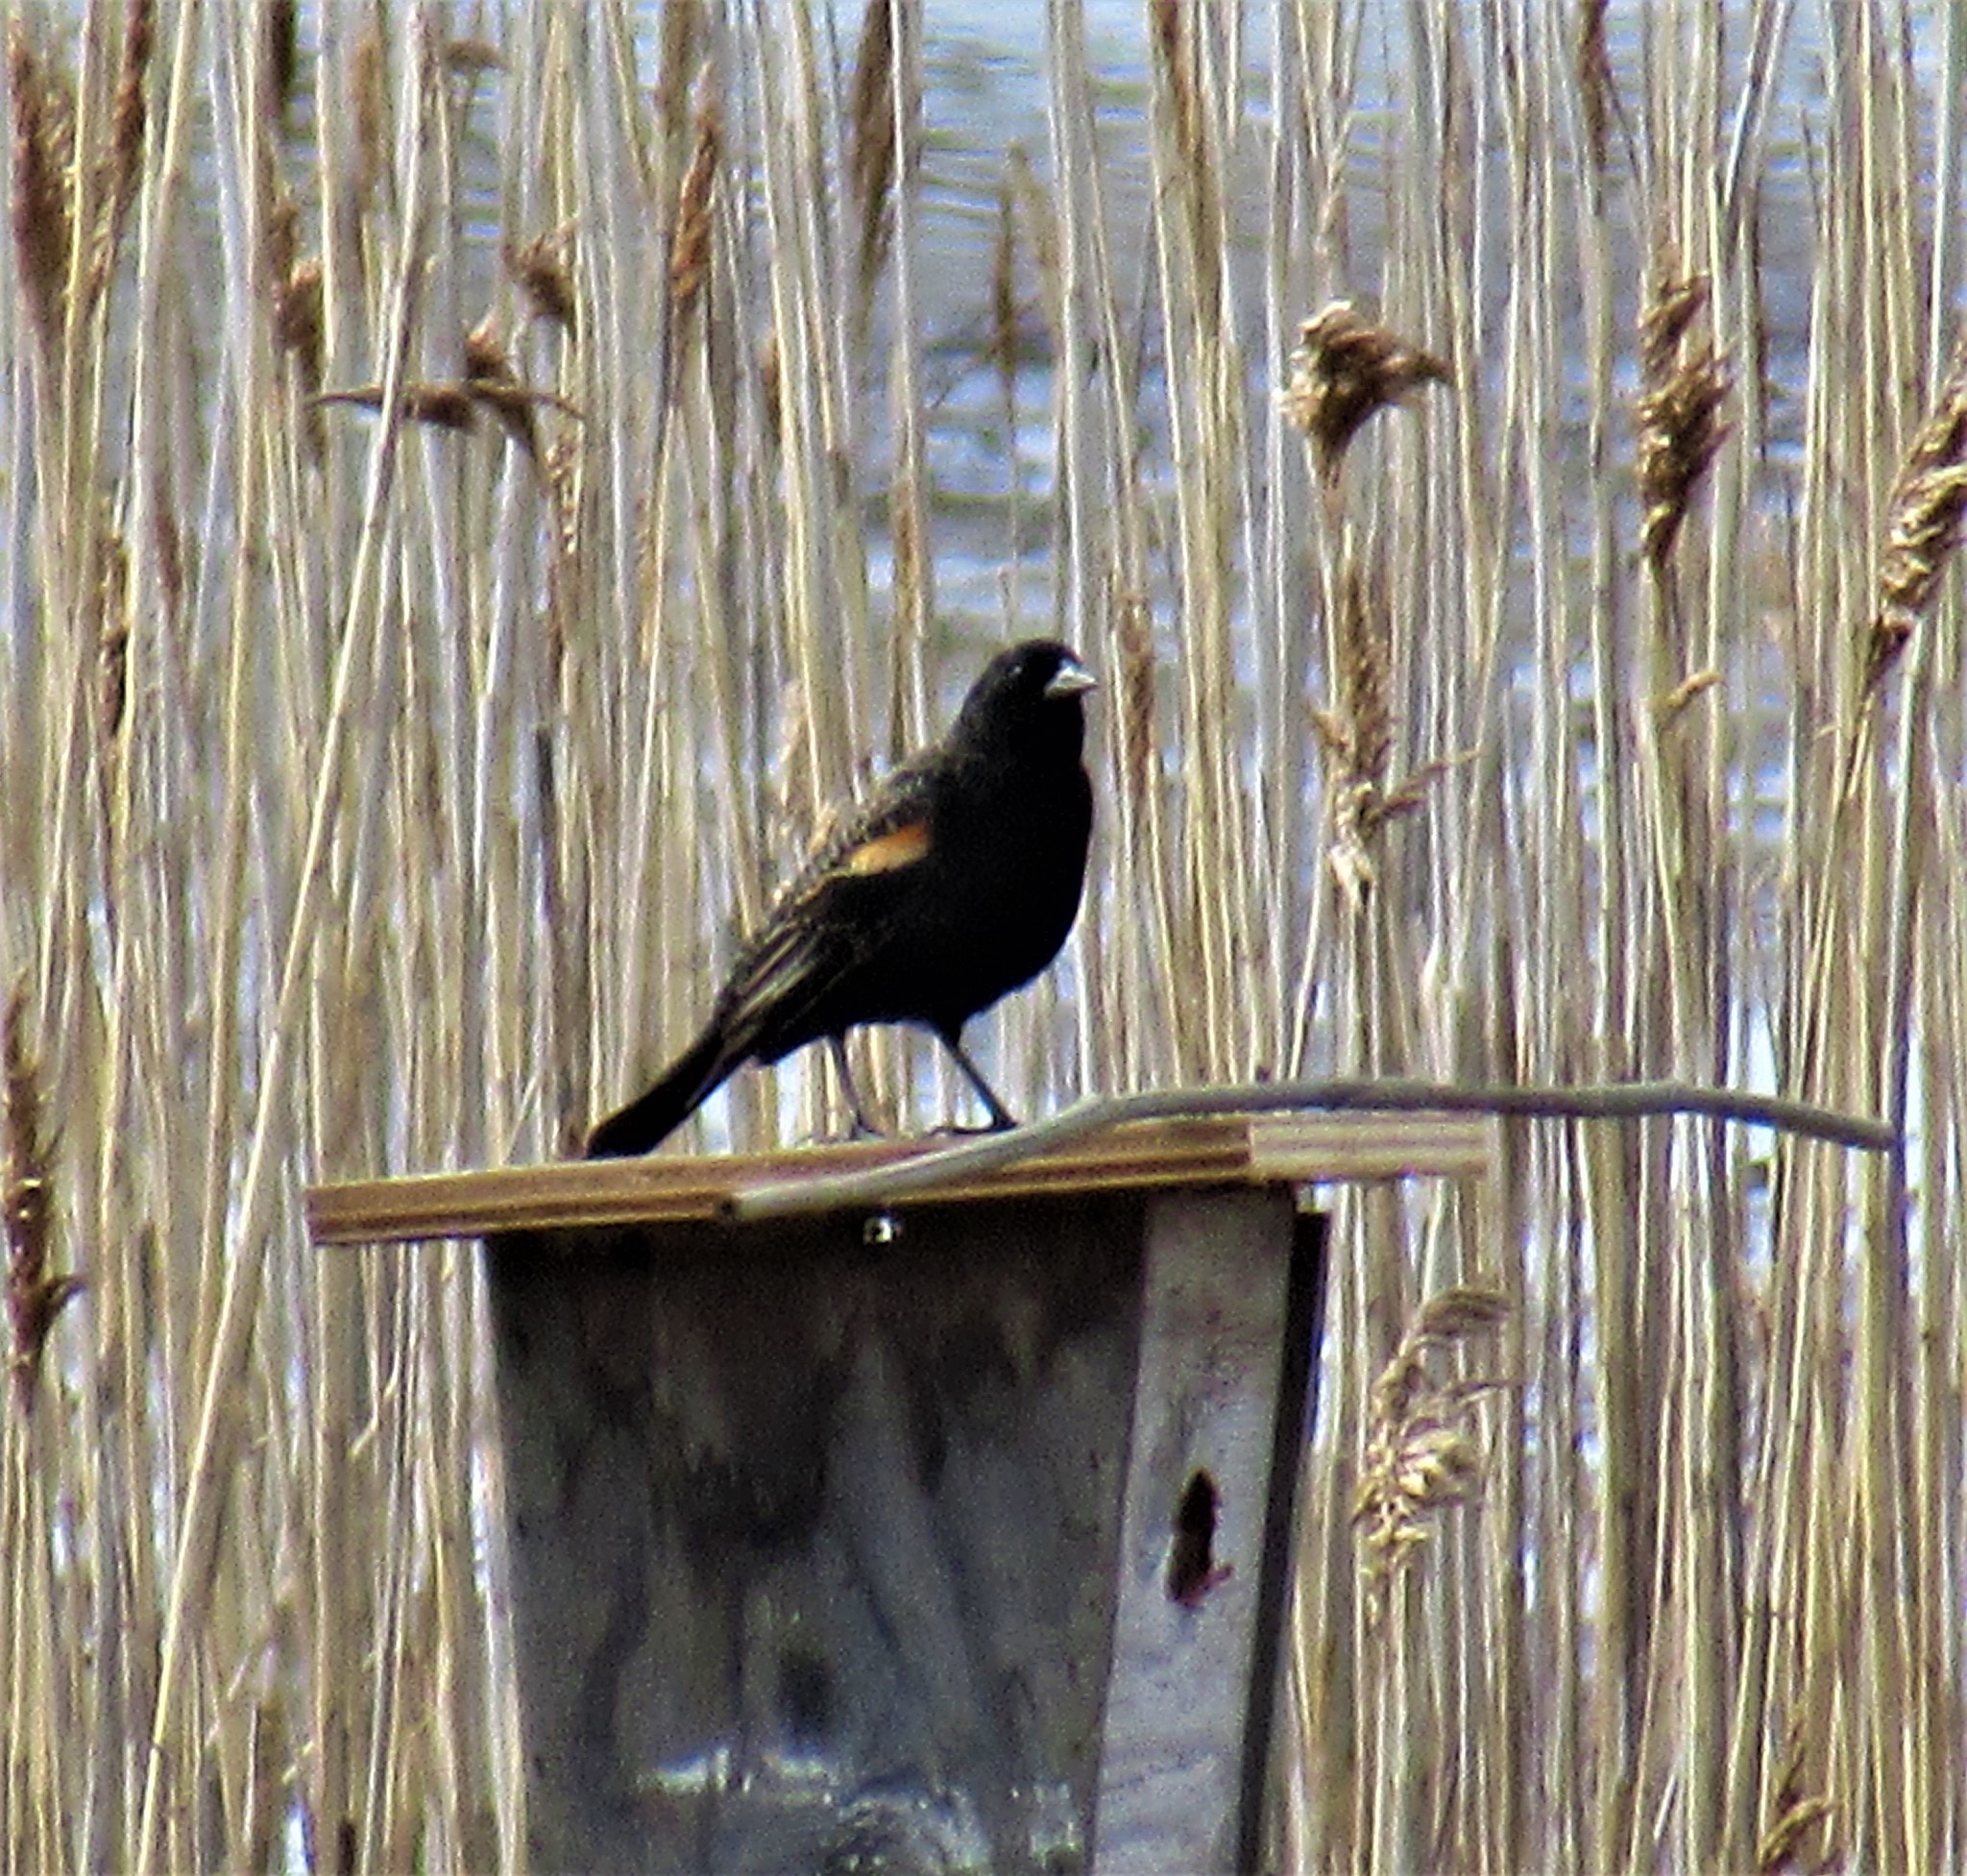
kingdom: Animalia
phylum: Chordata
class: Aves
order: Passeriformes
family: Icteridae
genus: Agelaius
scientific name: Agelaius phoeniceus
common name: Red-winged blackbird
